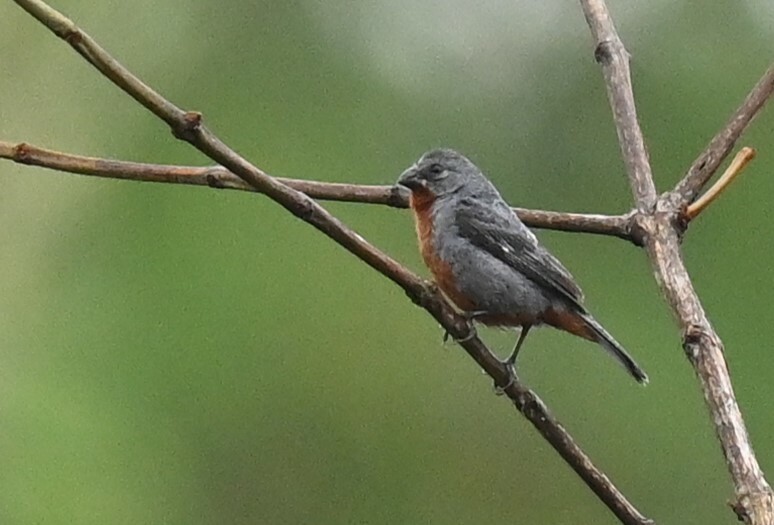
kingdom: Animalia
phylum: Chordata
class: Aves
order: Passeriformes
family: Thraupidae
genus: Sporophila
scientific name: Sporophila castaneiventris
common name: Chestnut-bellied seedeater
